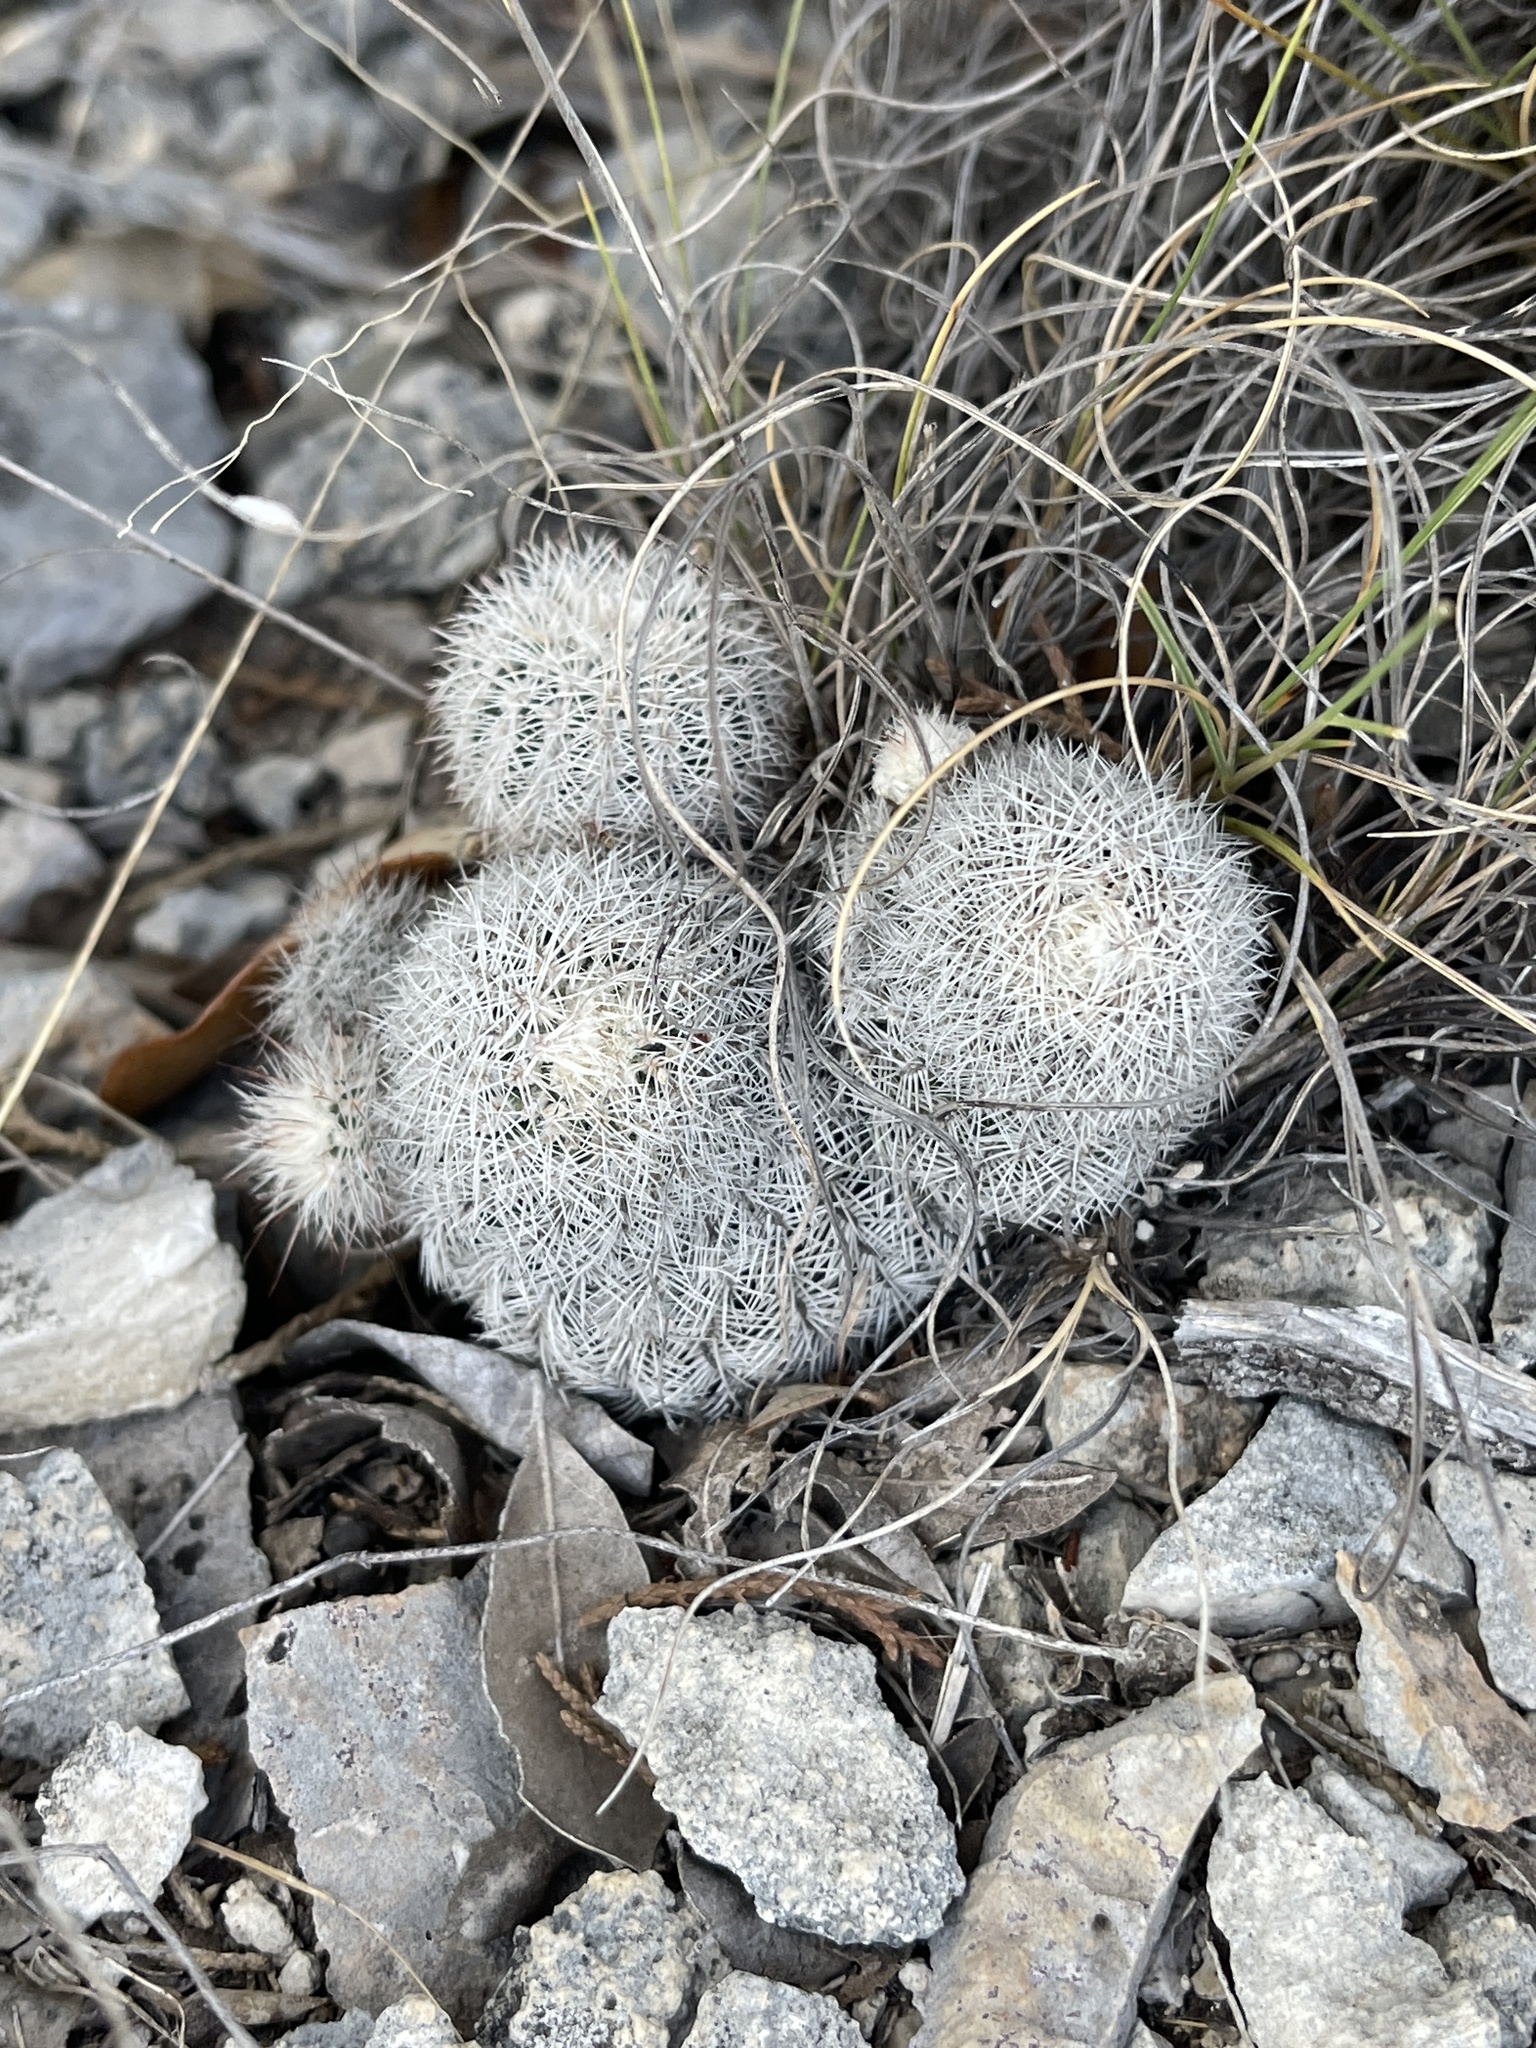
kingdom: Plantae
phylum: Tracheophyta
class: Magnoliopsida
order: Caryophyllales
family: Cactaceae
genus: Echinocereus
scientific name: Echinocereus reichenbachii
